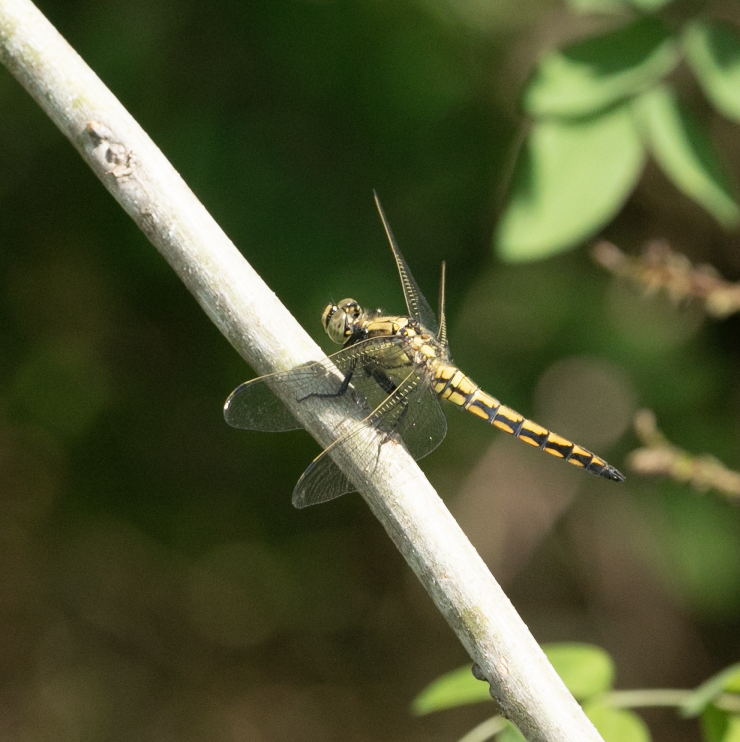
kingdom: Animalia
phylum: Arthropoda
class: Insecta
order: Odonata
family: Libellulidae
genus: Orthetrum
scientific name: Orthetrum cancellatum
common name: Black-tailed skimmer
